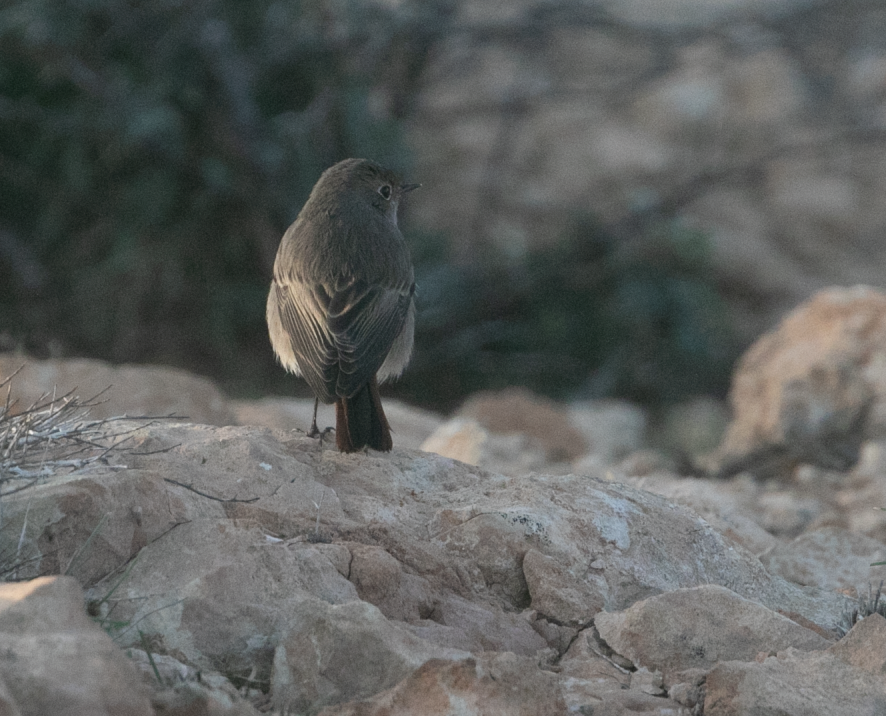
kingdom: Animalia
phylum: Chordata
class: Aves
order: Passeriformes
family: Muscicapidae
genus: Phoenicurus
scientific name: Phoenicurus ochruros
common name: Black redstart
